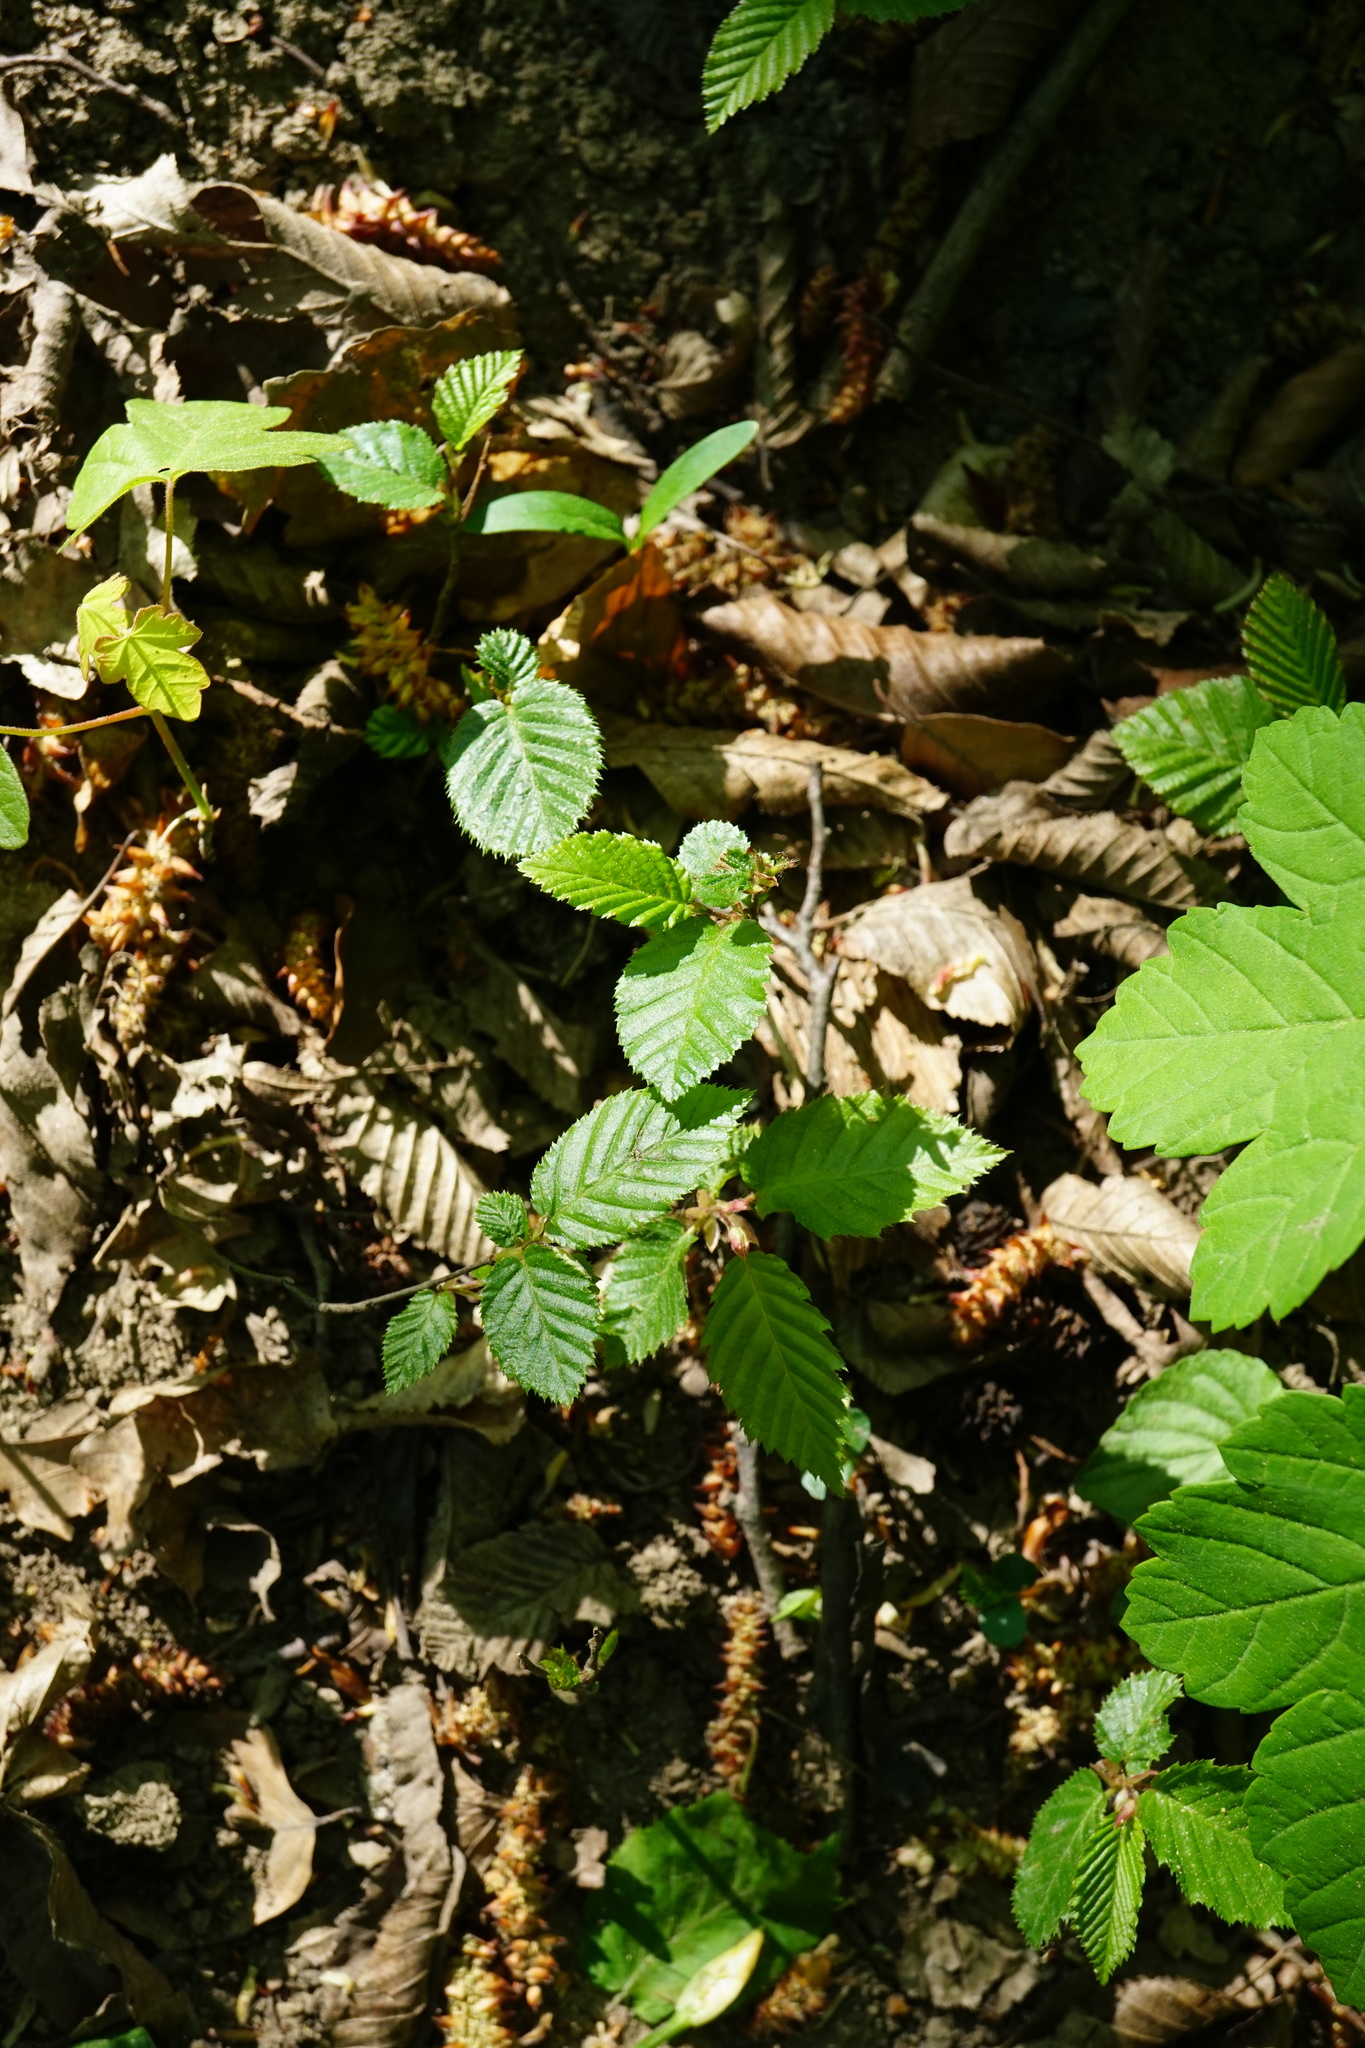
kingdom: Plantae
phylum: Tracheophyta
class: Magnoliopsida
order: Fagales
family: Betulaceae
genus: Carpinus
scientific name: Carpinus betulus
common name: Hornbeam
